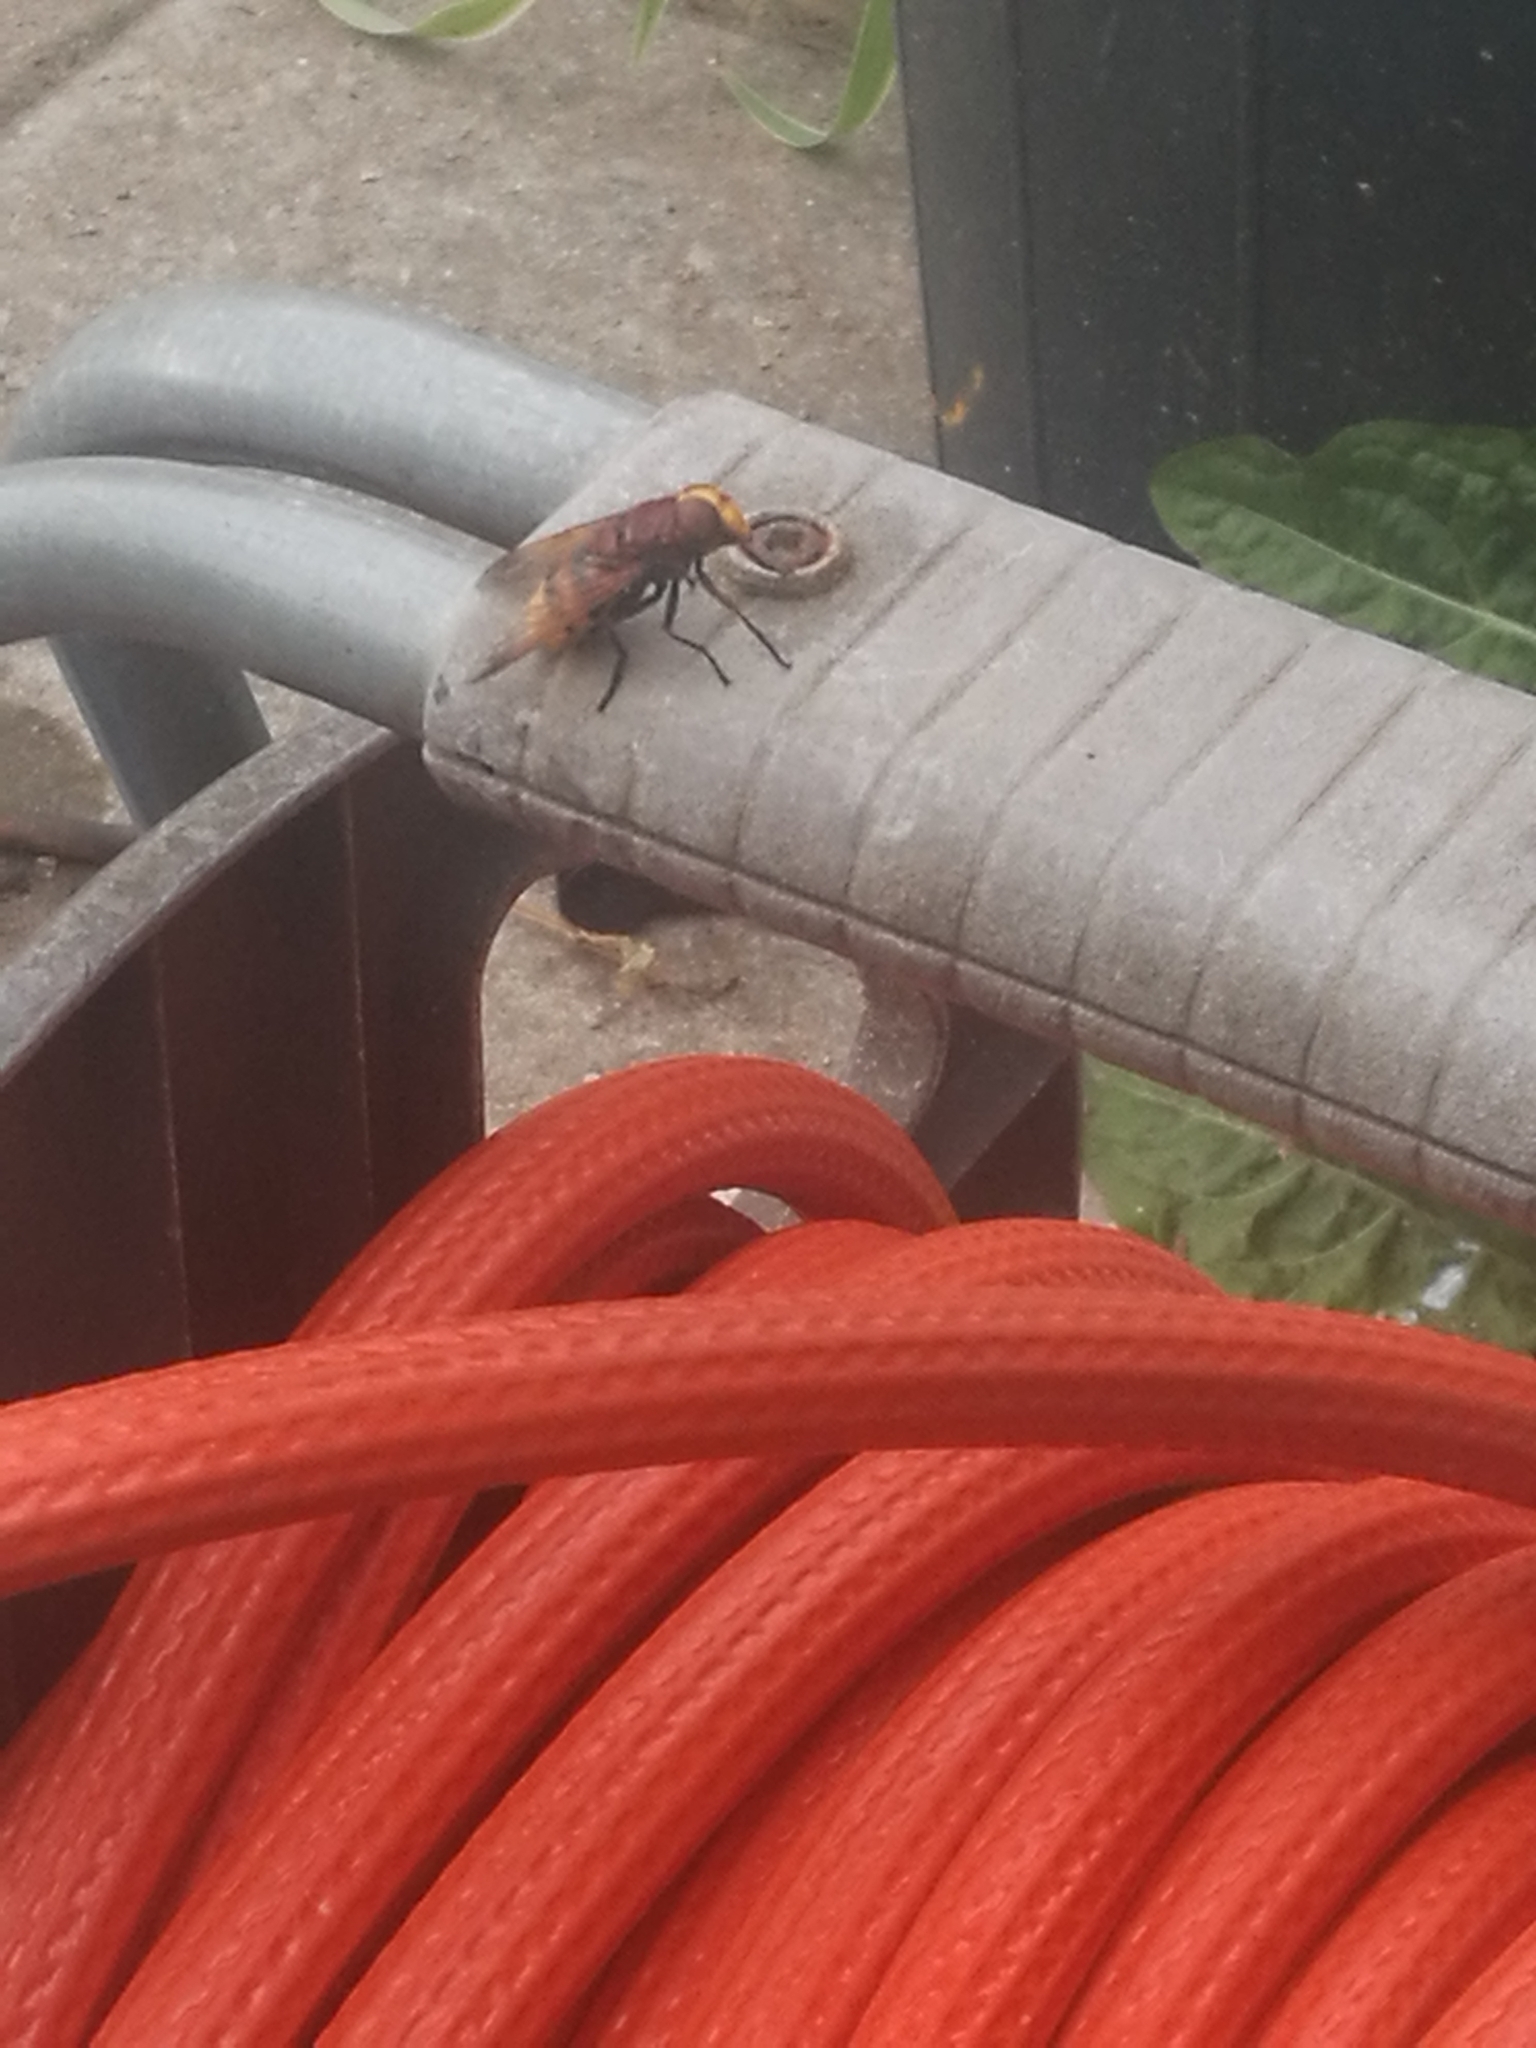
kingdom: Animalia
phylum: Arthropoda
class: Insecta
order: Diptera
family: Syrphidae
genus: Volucella
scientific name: Volucella zonaria
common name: Hornet hoverfly
